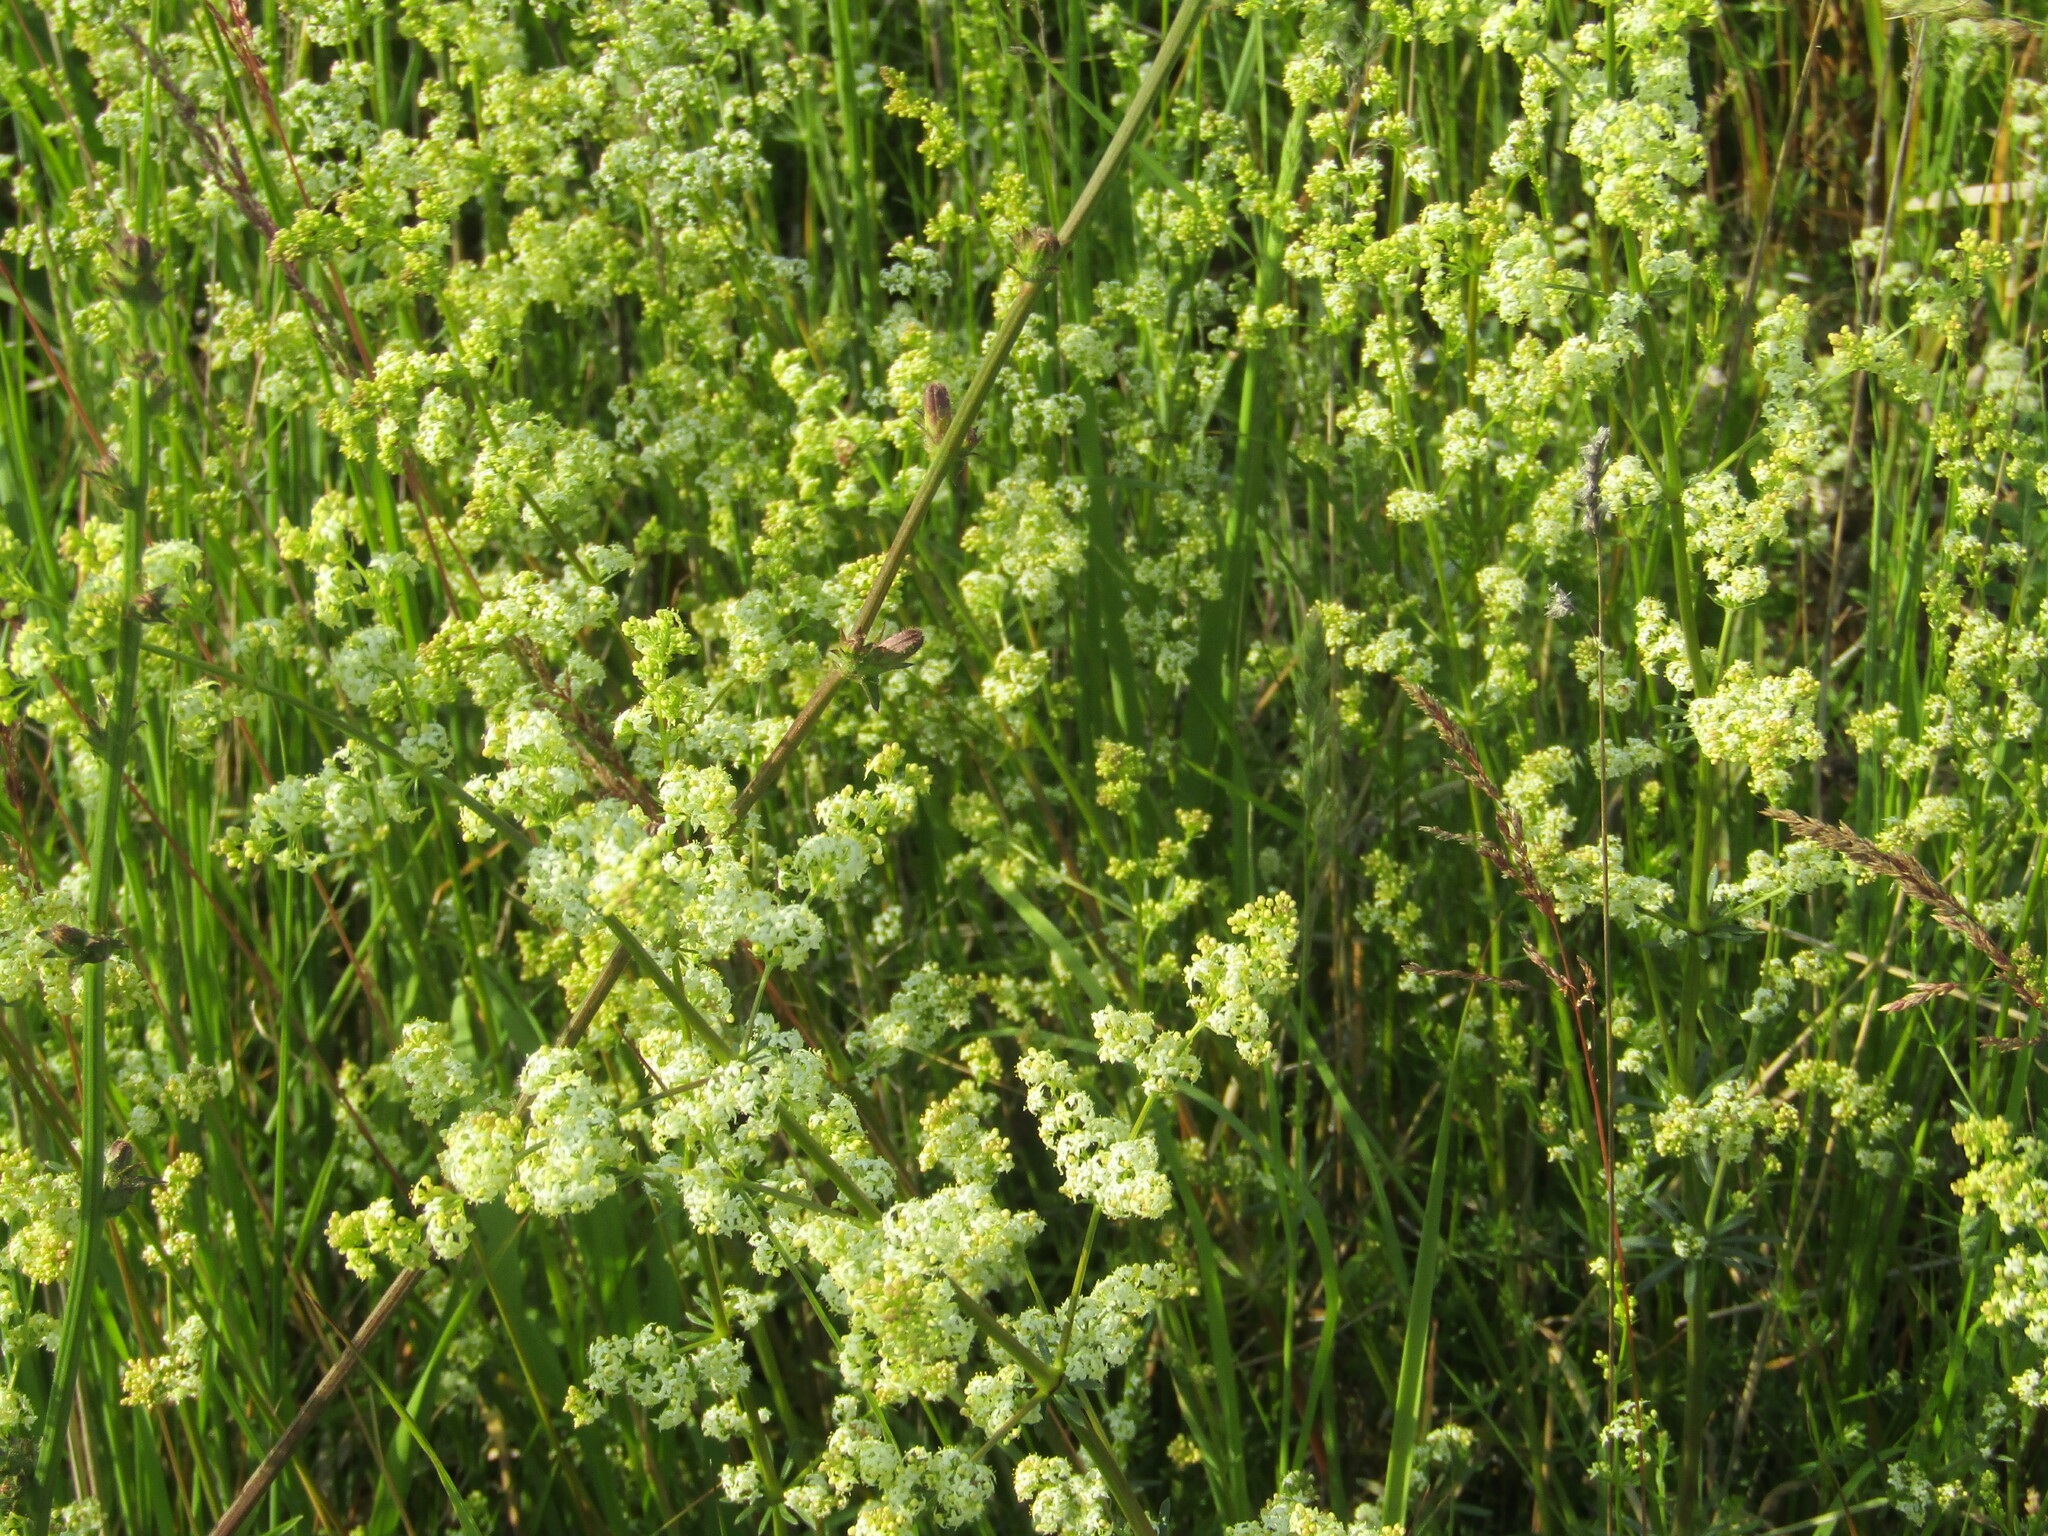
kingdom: Plantae
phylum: Tracheophyta
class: Magnoliopsida
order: Gentianales
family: Rubiaceae
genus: Galium
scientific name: Galium mollugo
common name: Hedge bedstraw
